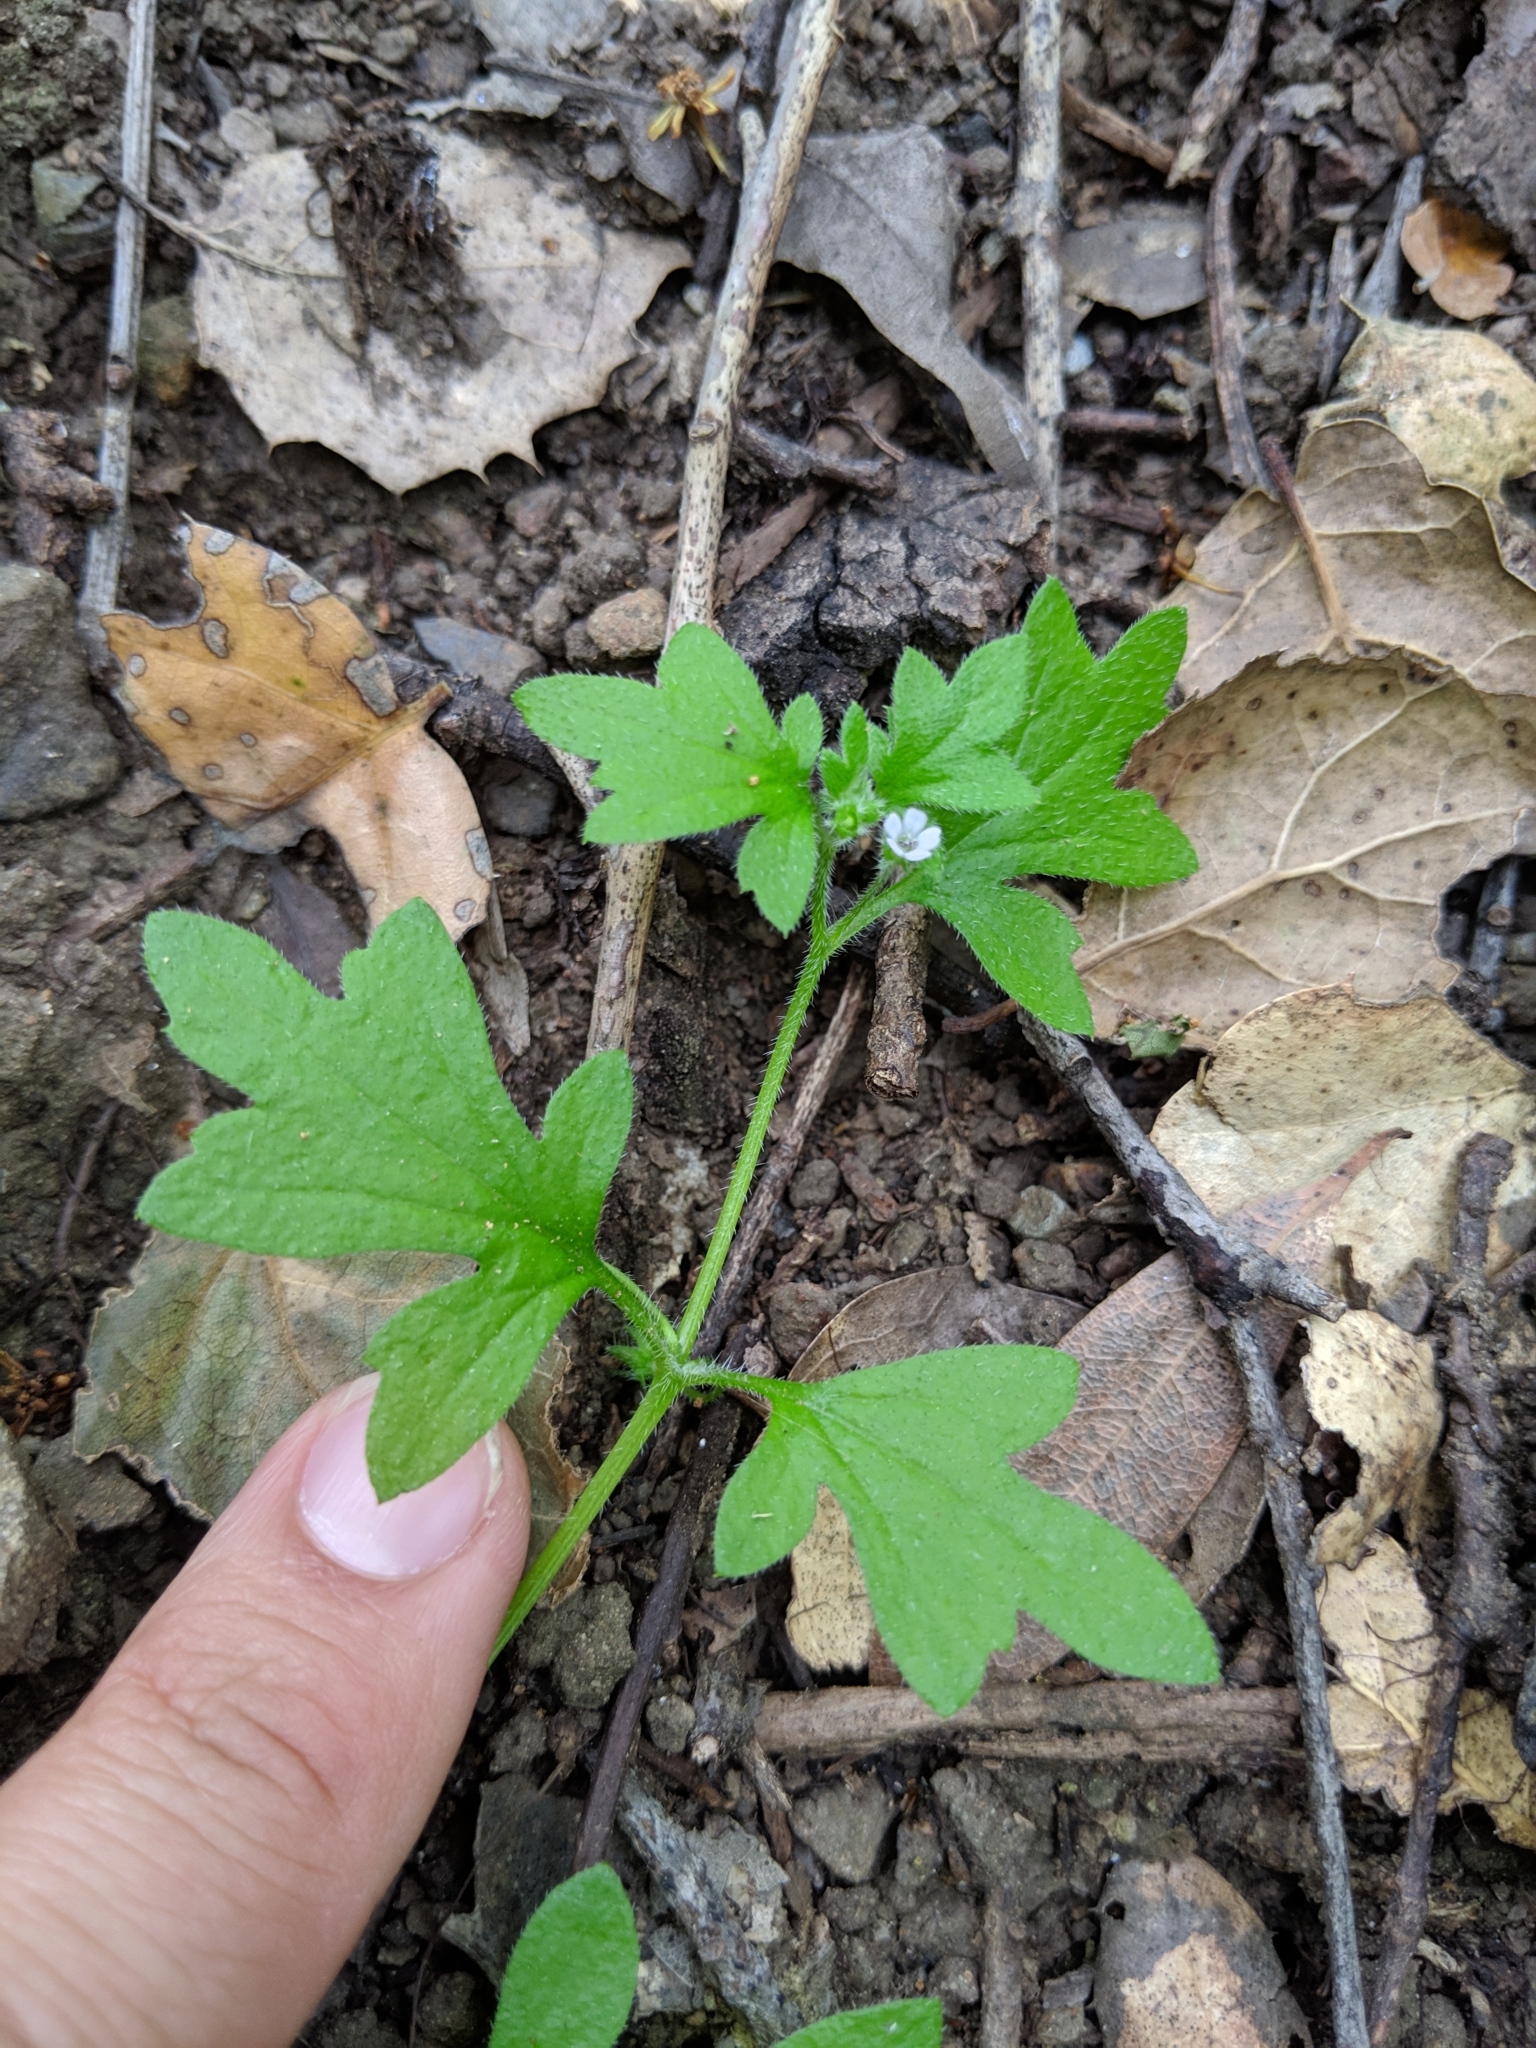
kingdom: Plantae
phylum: Tracheophyta
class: Magnoliopsida
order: Boraginales
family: Hydrophyllaceae
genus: Nemophila
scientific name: Nemophila parviflora
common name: Small-flowered baby-blue-eyes
